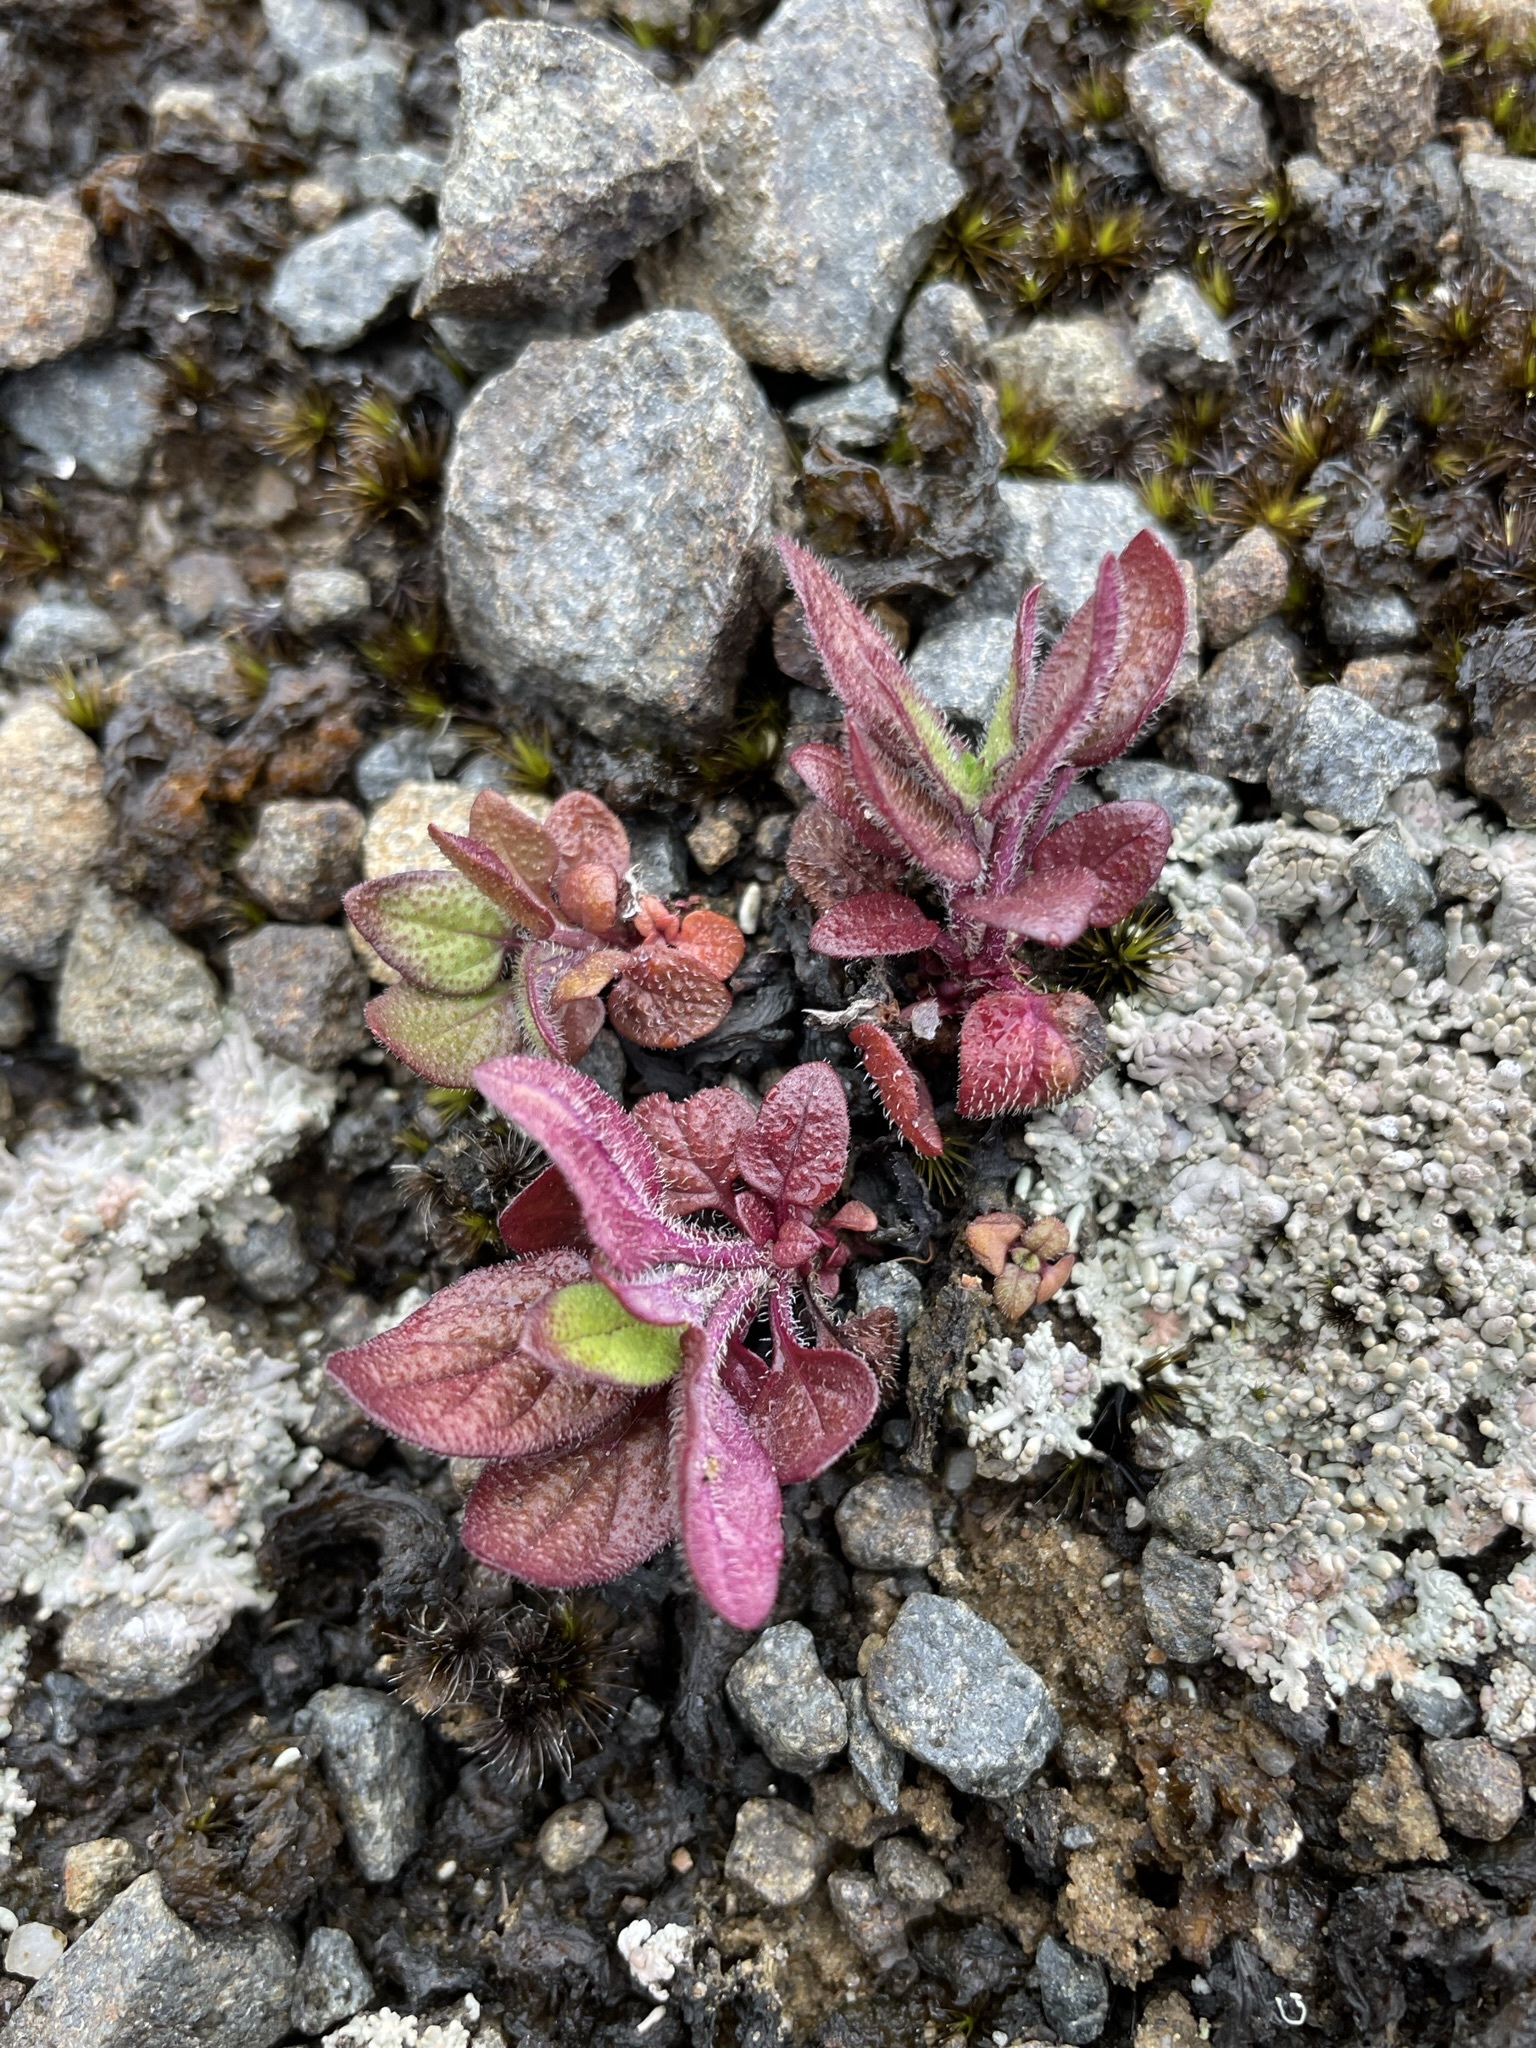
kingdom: Plantae
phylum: Tracheophyta
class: Magnoliopsida
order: Lamiales
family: Lamiaceae
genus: Prunella
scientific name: Prunella vulgaris
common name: Heal-all
